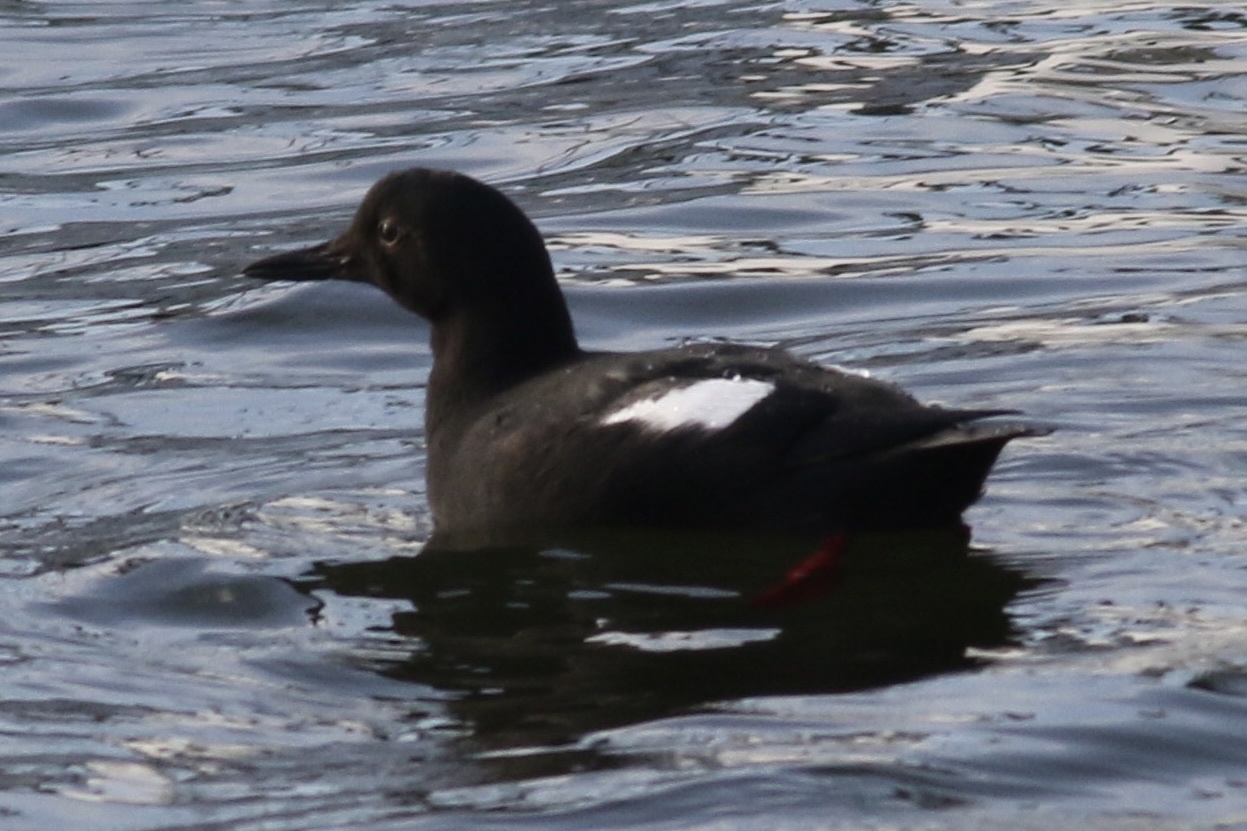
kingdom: Animalia
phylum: Chordata
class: Aves
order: Charadriiformes
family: Alcidae
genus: Cepphus
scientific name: Cepphus columba
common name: Pigeon guillemot
